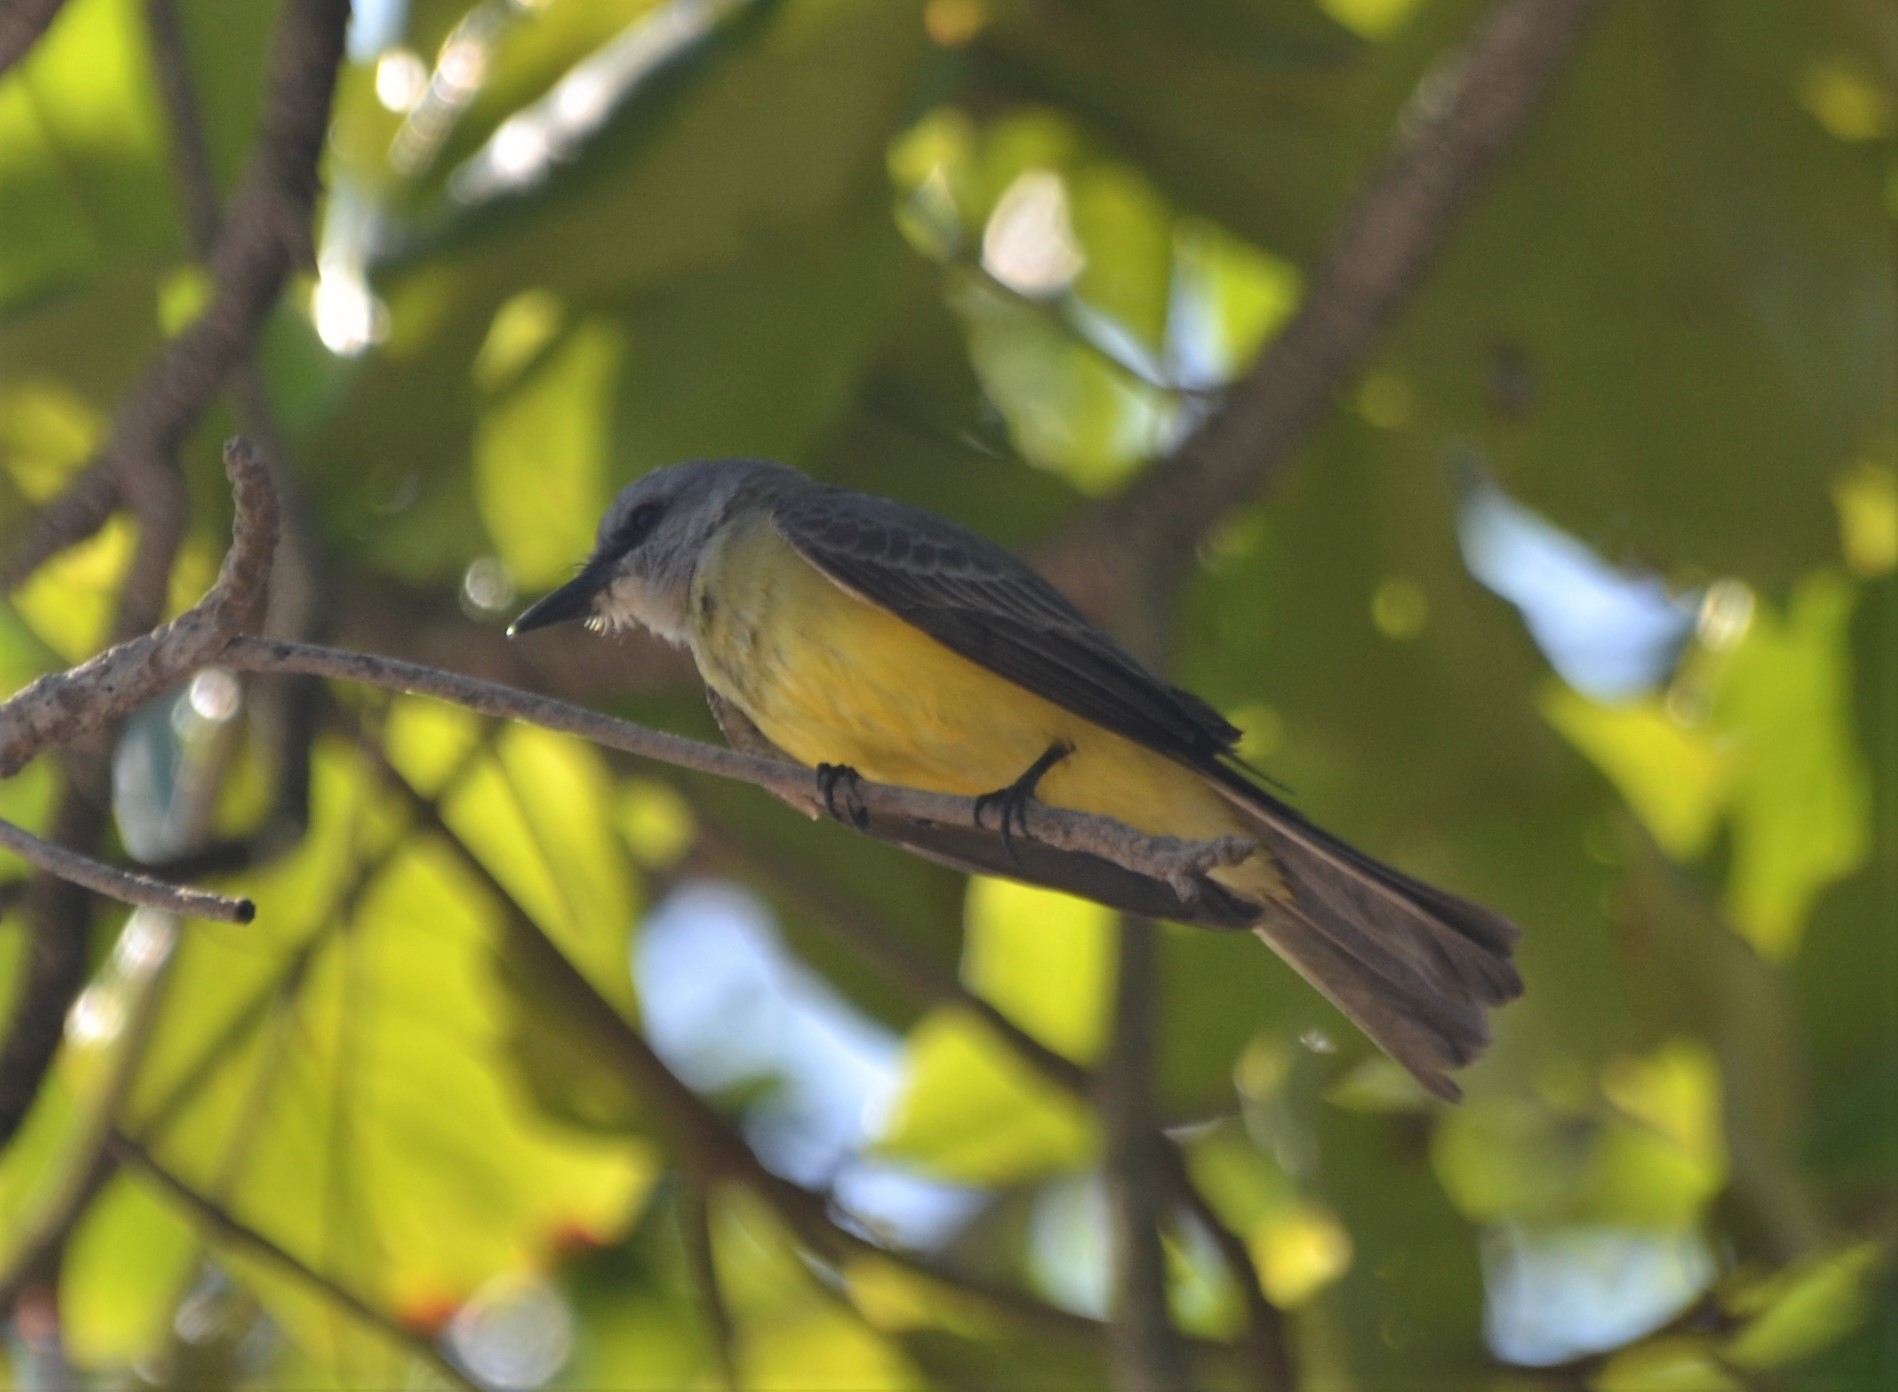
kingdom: Animalia
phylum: Chordata
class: Aves
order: Passeriformes
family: Tyrannidae
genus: Tyrannus
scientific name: Tyrannus melancholicus
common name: Tropical kingbird
